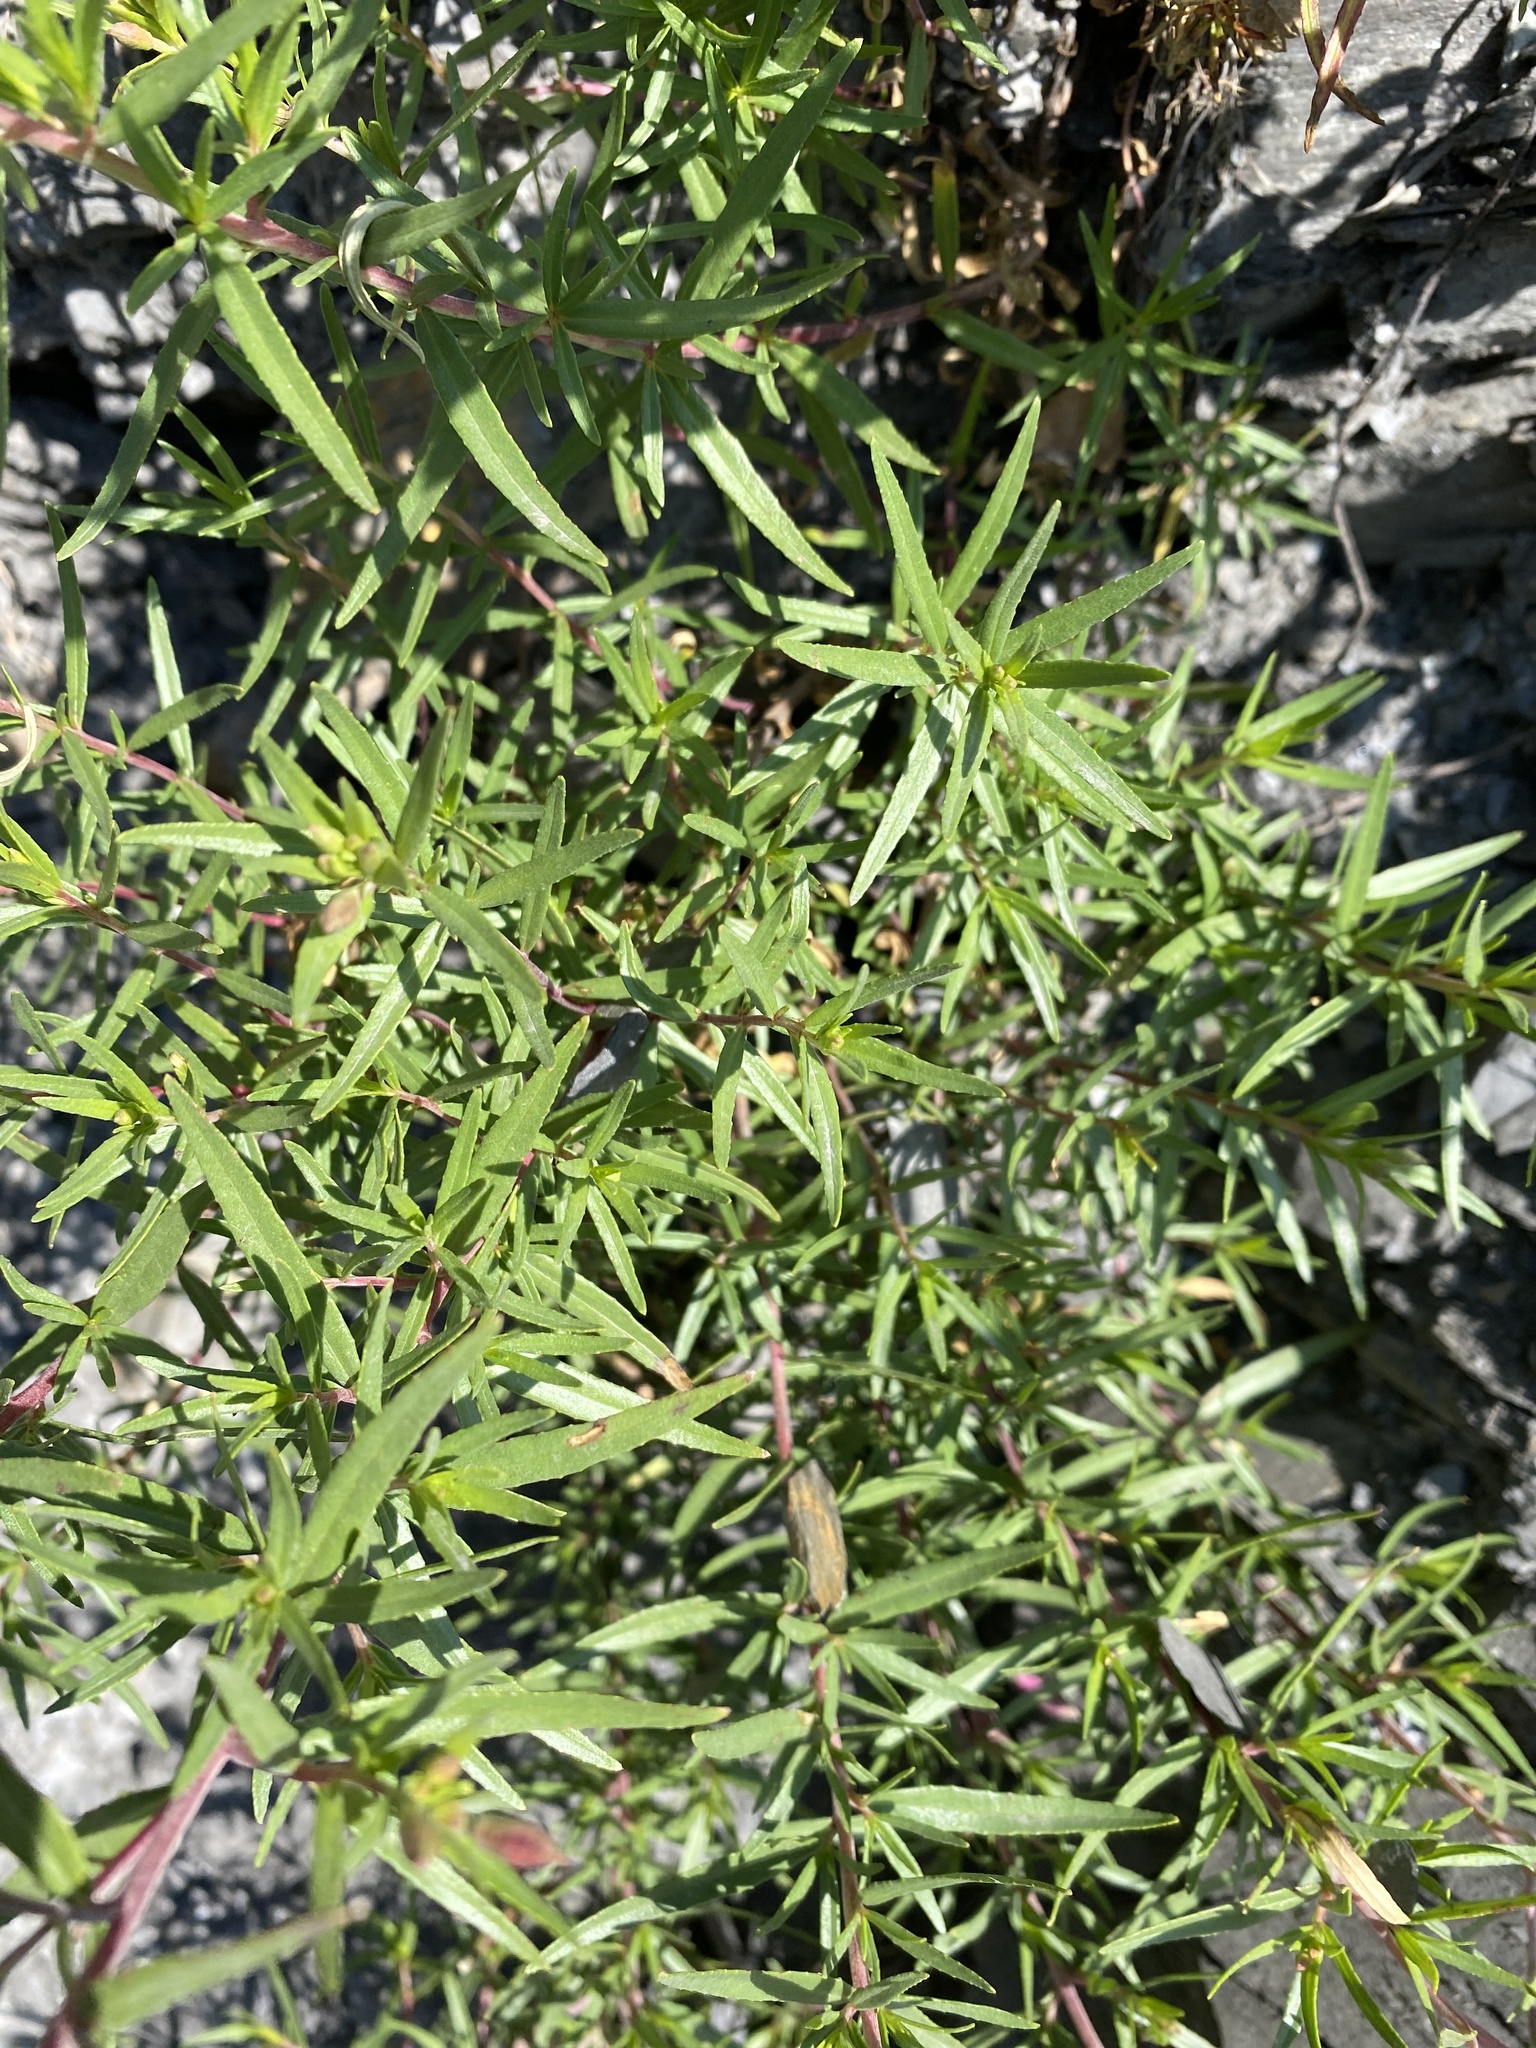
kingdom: Plantae
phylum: Tracheophyta
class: Magnoliopsida
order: Myrtales
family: Onagraceae
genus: Chamaenerion
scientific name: Chamaenerion fleischeri
